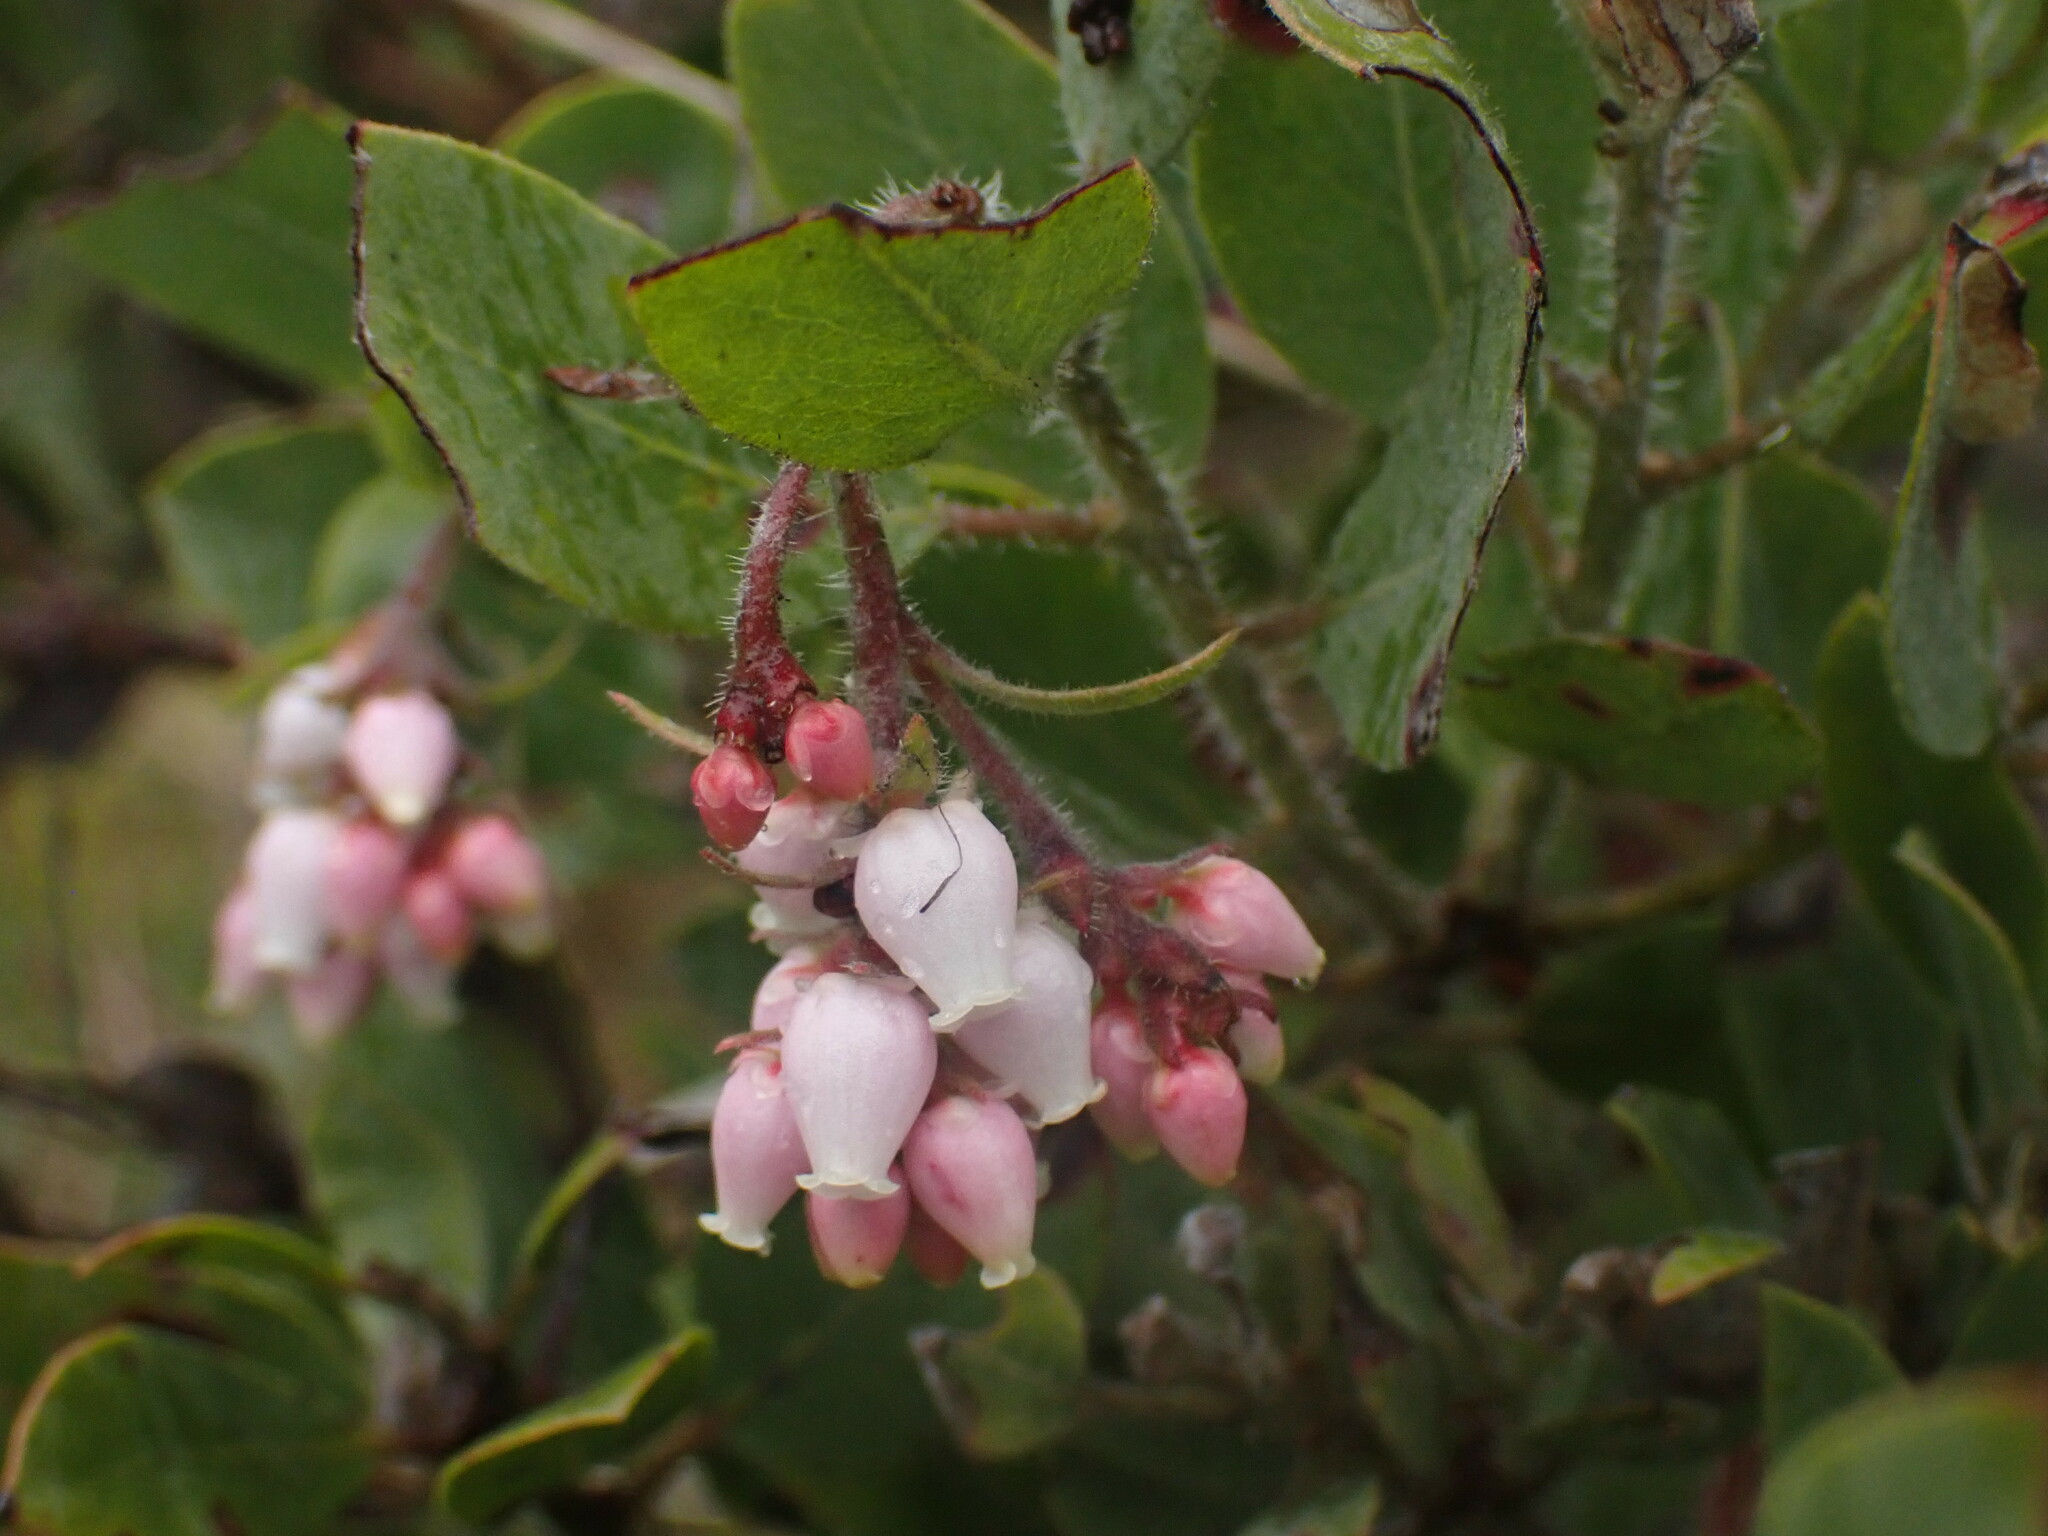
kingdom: Plantae
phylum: Tracheophyta
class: Magnoliopsida
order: Ericales
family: Ericaceae
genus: Arctostaphylos
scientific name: Arctostaphylos columbiana
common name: Bristly bearberry
